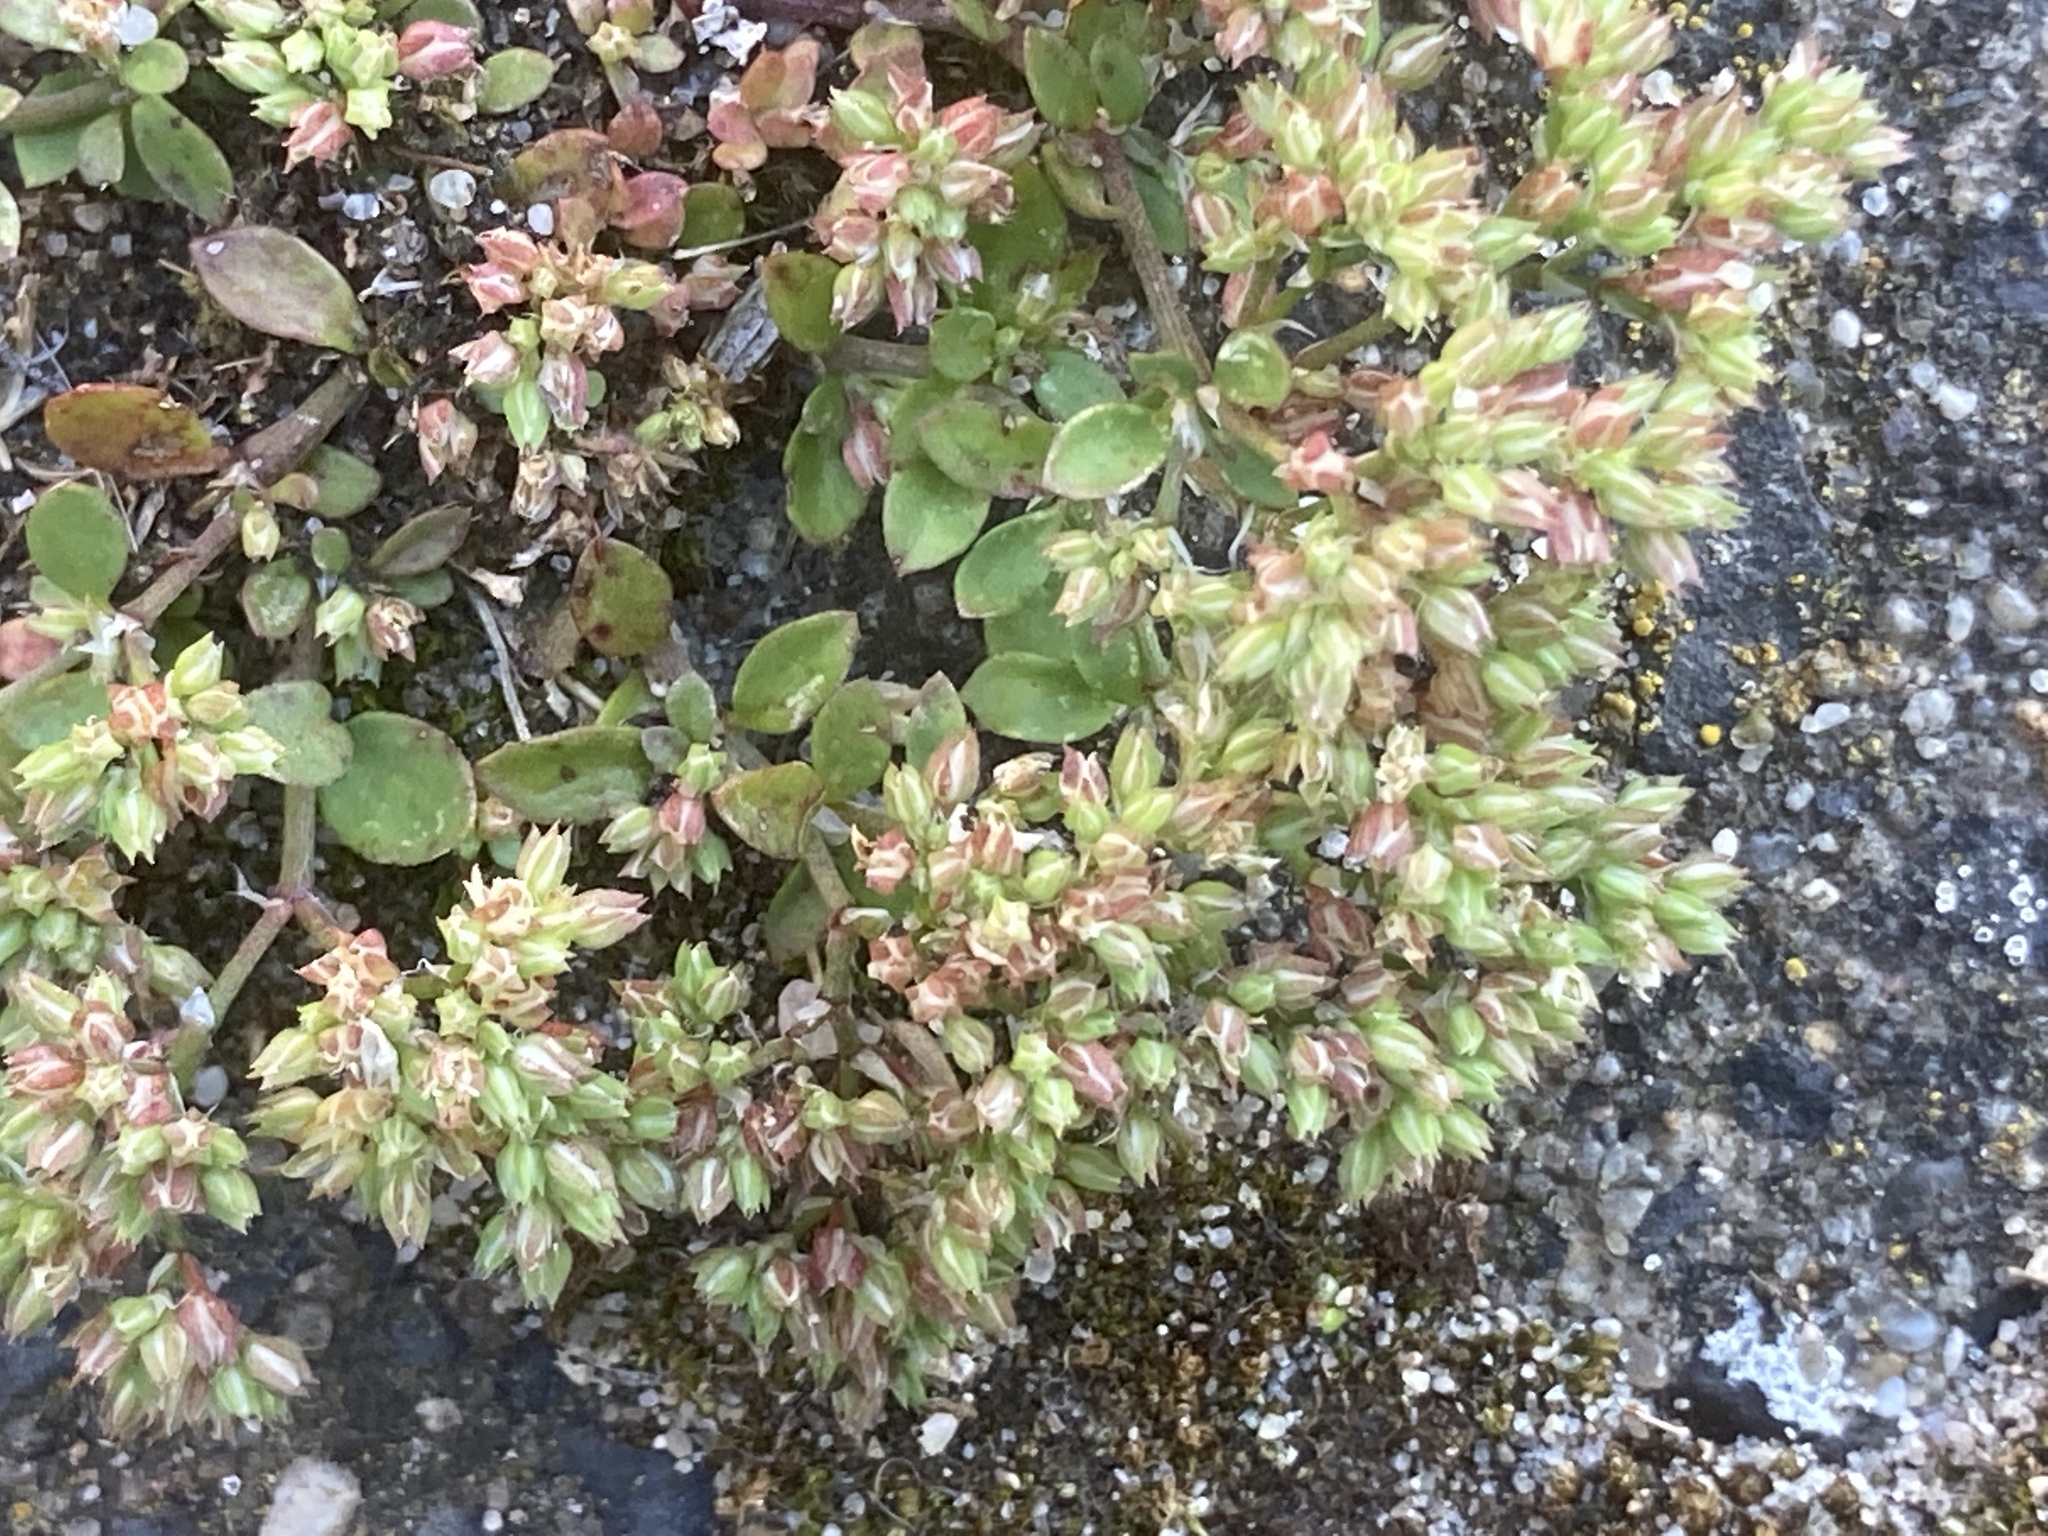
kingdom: Plantae
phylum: Tracheophyta
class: Magnoliopsida
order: Caryophyllales
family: Caryophyllaceae
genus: Polycarpon
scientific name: Polycarpon tetraphyllum
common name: Four-leaved all-seed
